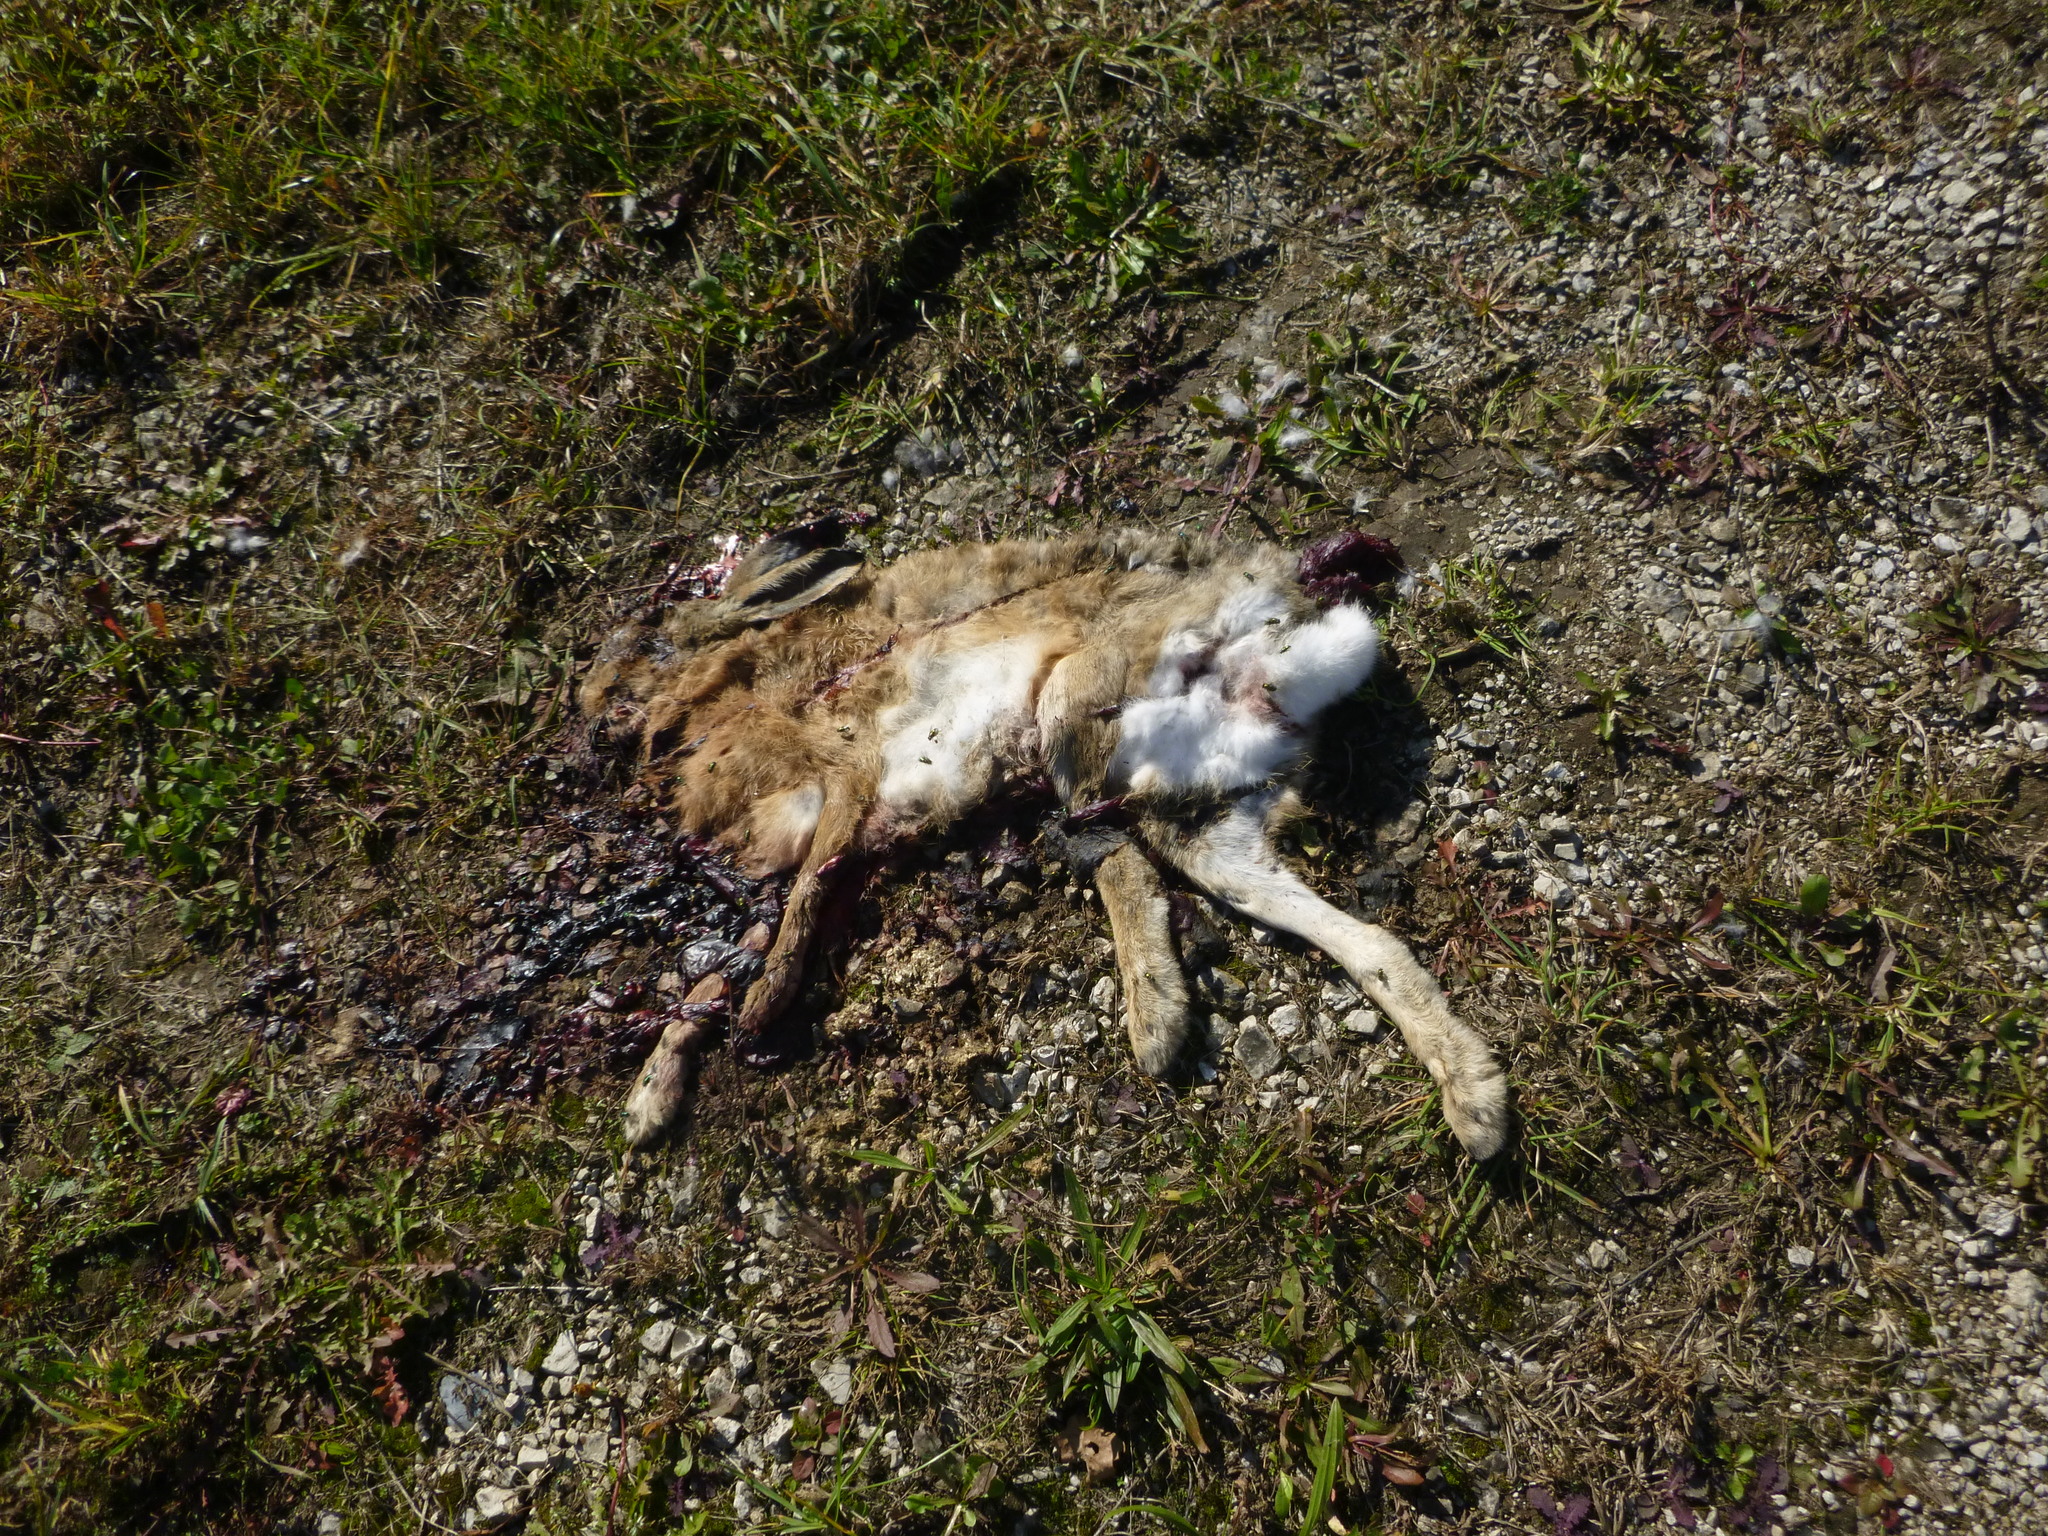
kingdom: Animalia
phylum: Chordata
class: Mammalia
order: Lagomorpha
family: Leporidae
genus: Lepus
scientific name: Lepus europaeus
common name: European hare
